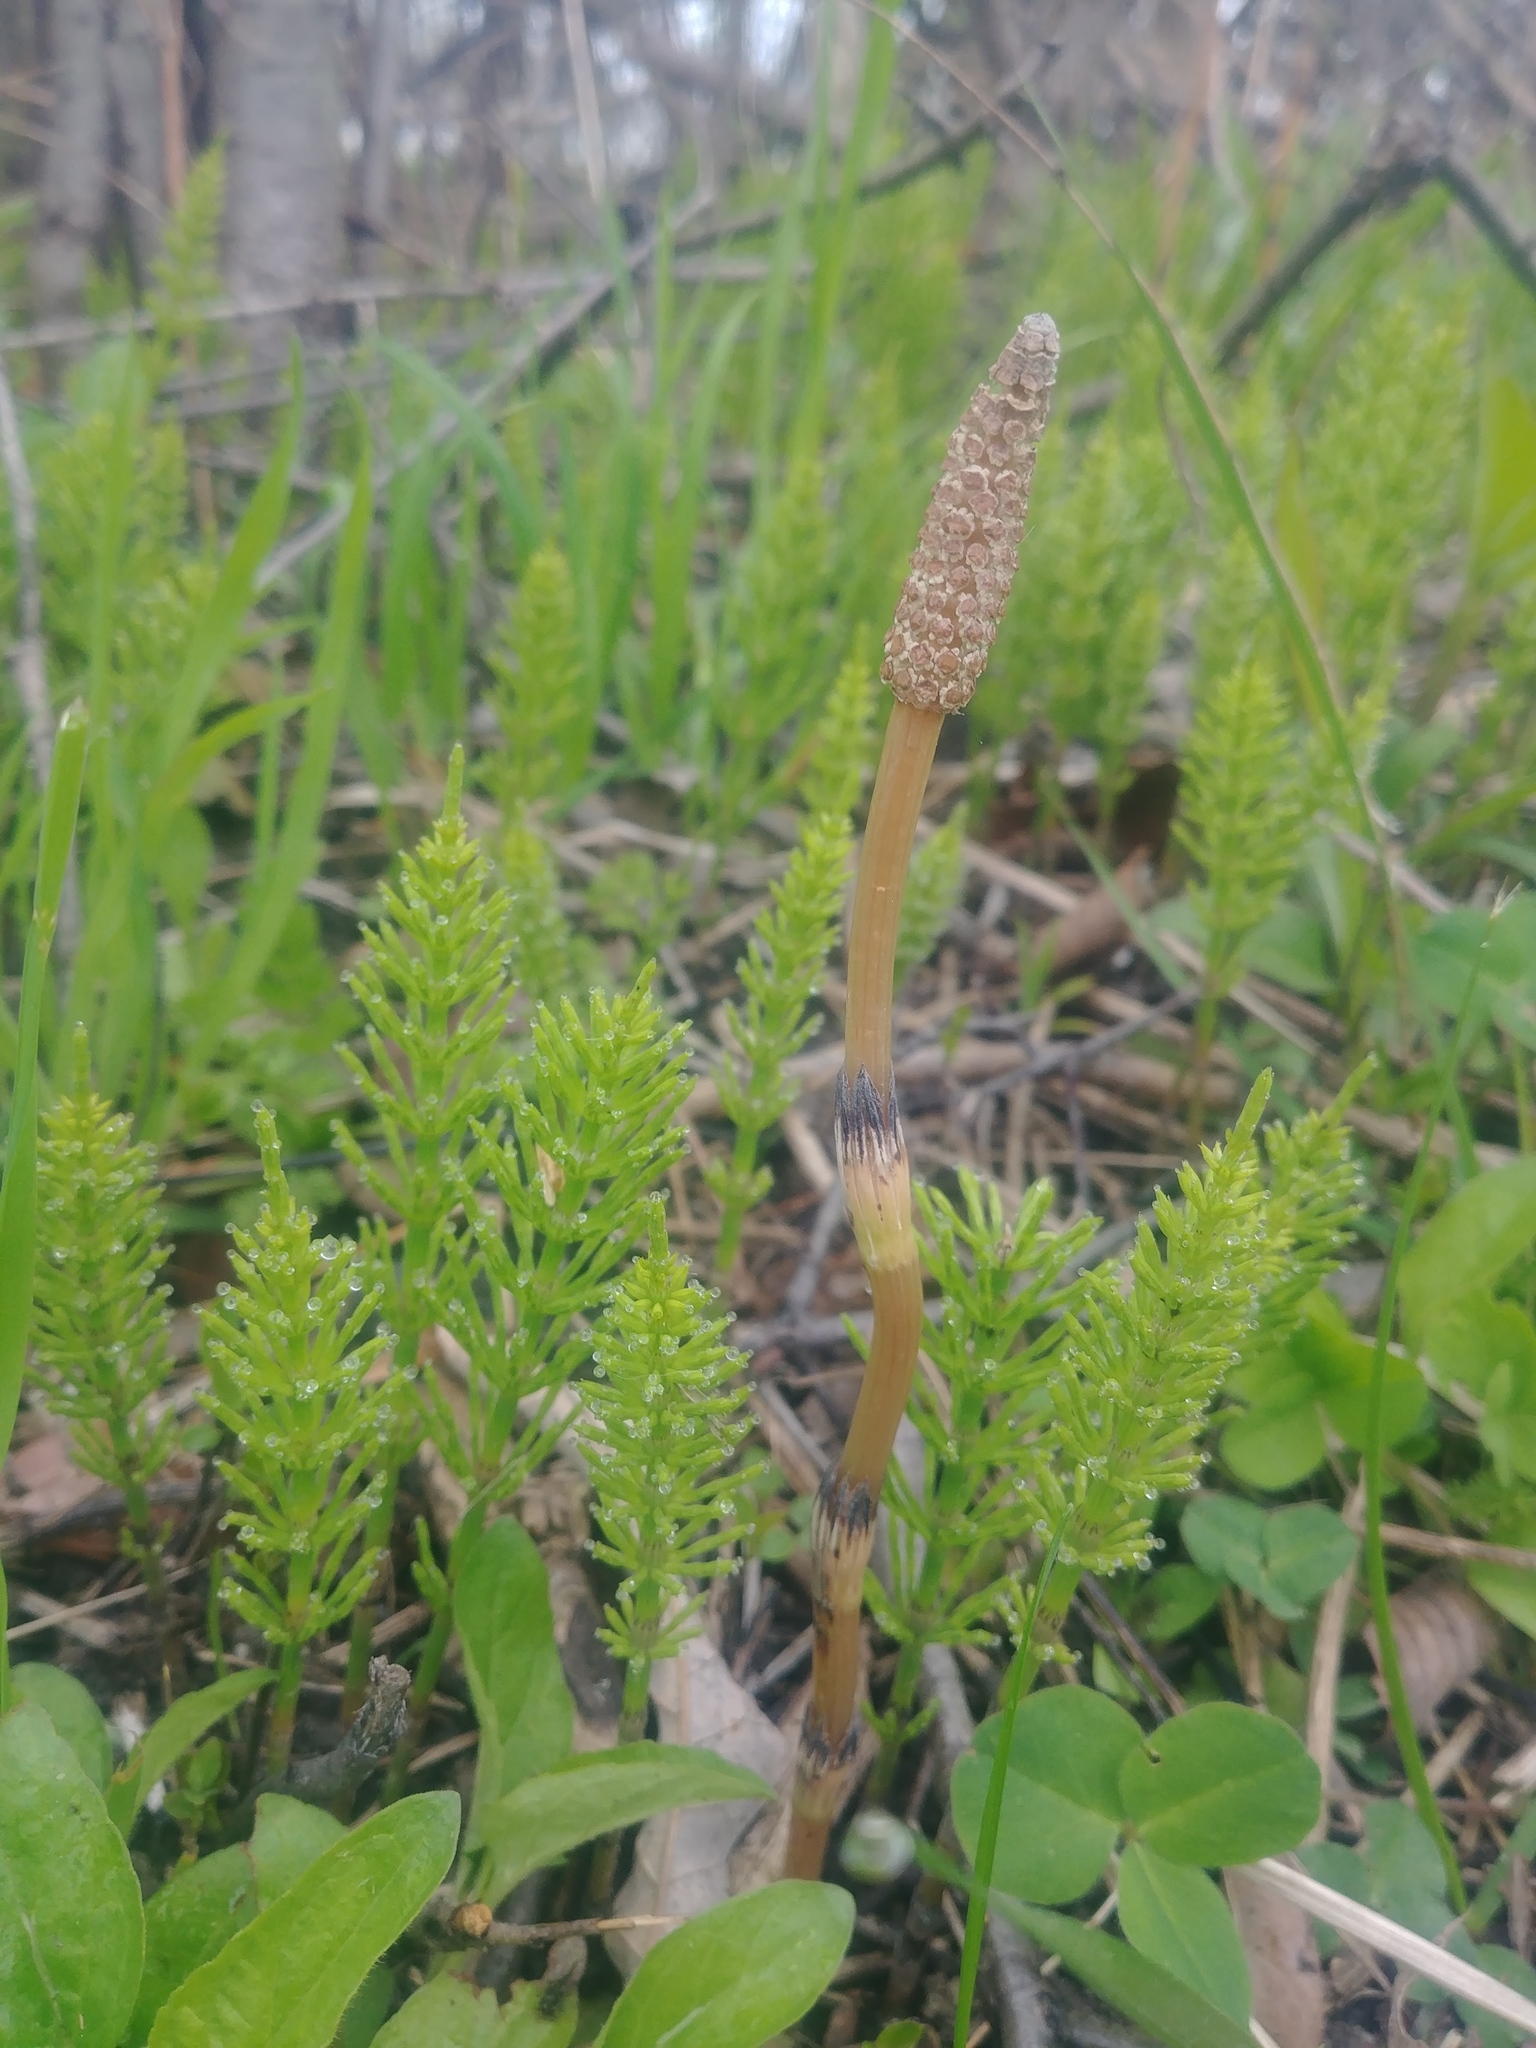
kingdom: Plantae
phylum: Tracheophyta
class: Polypodiopsida
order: Equisetales
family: Equisetaceae
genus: Equisetum
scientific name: Equisetum arvense
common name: Field horsetail
